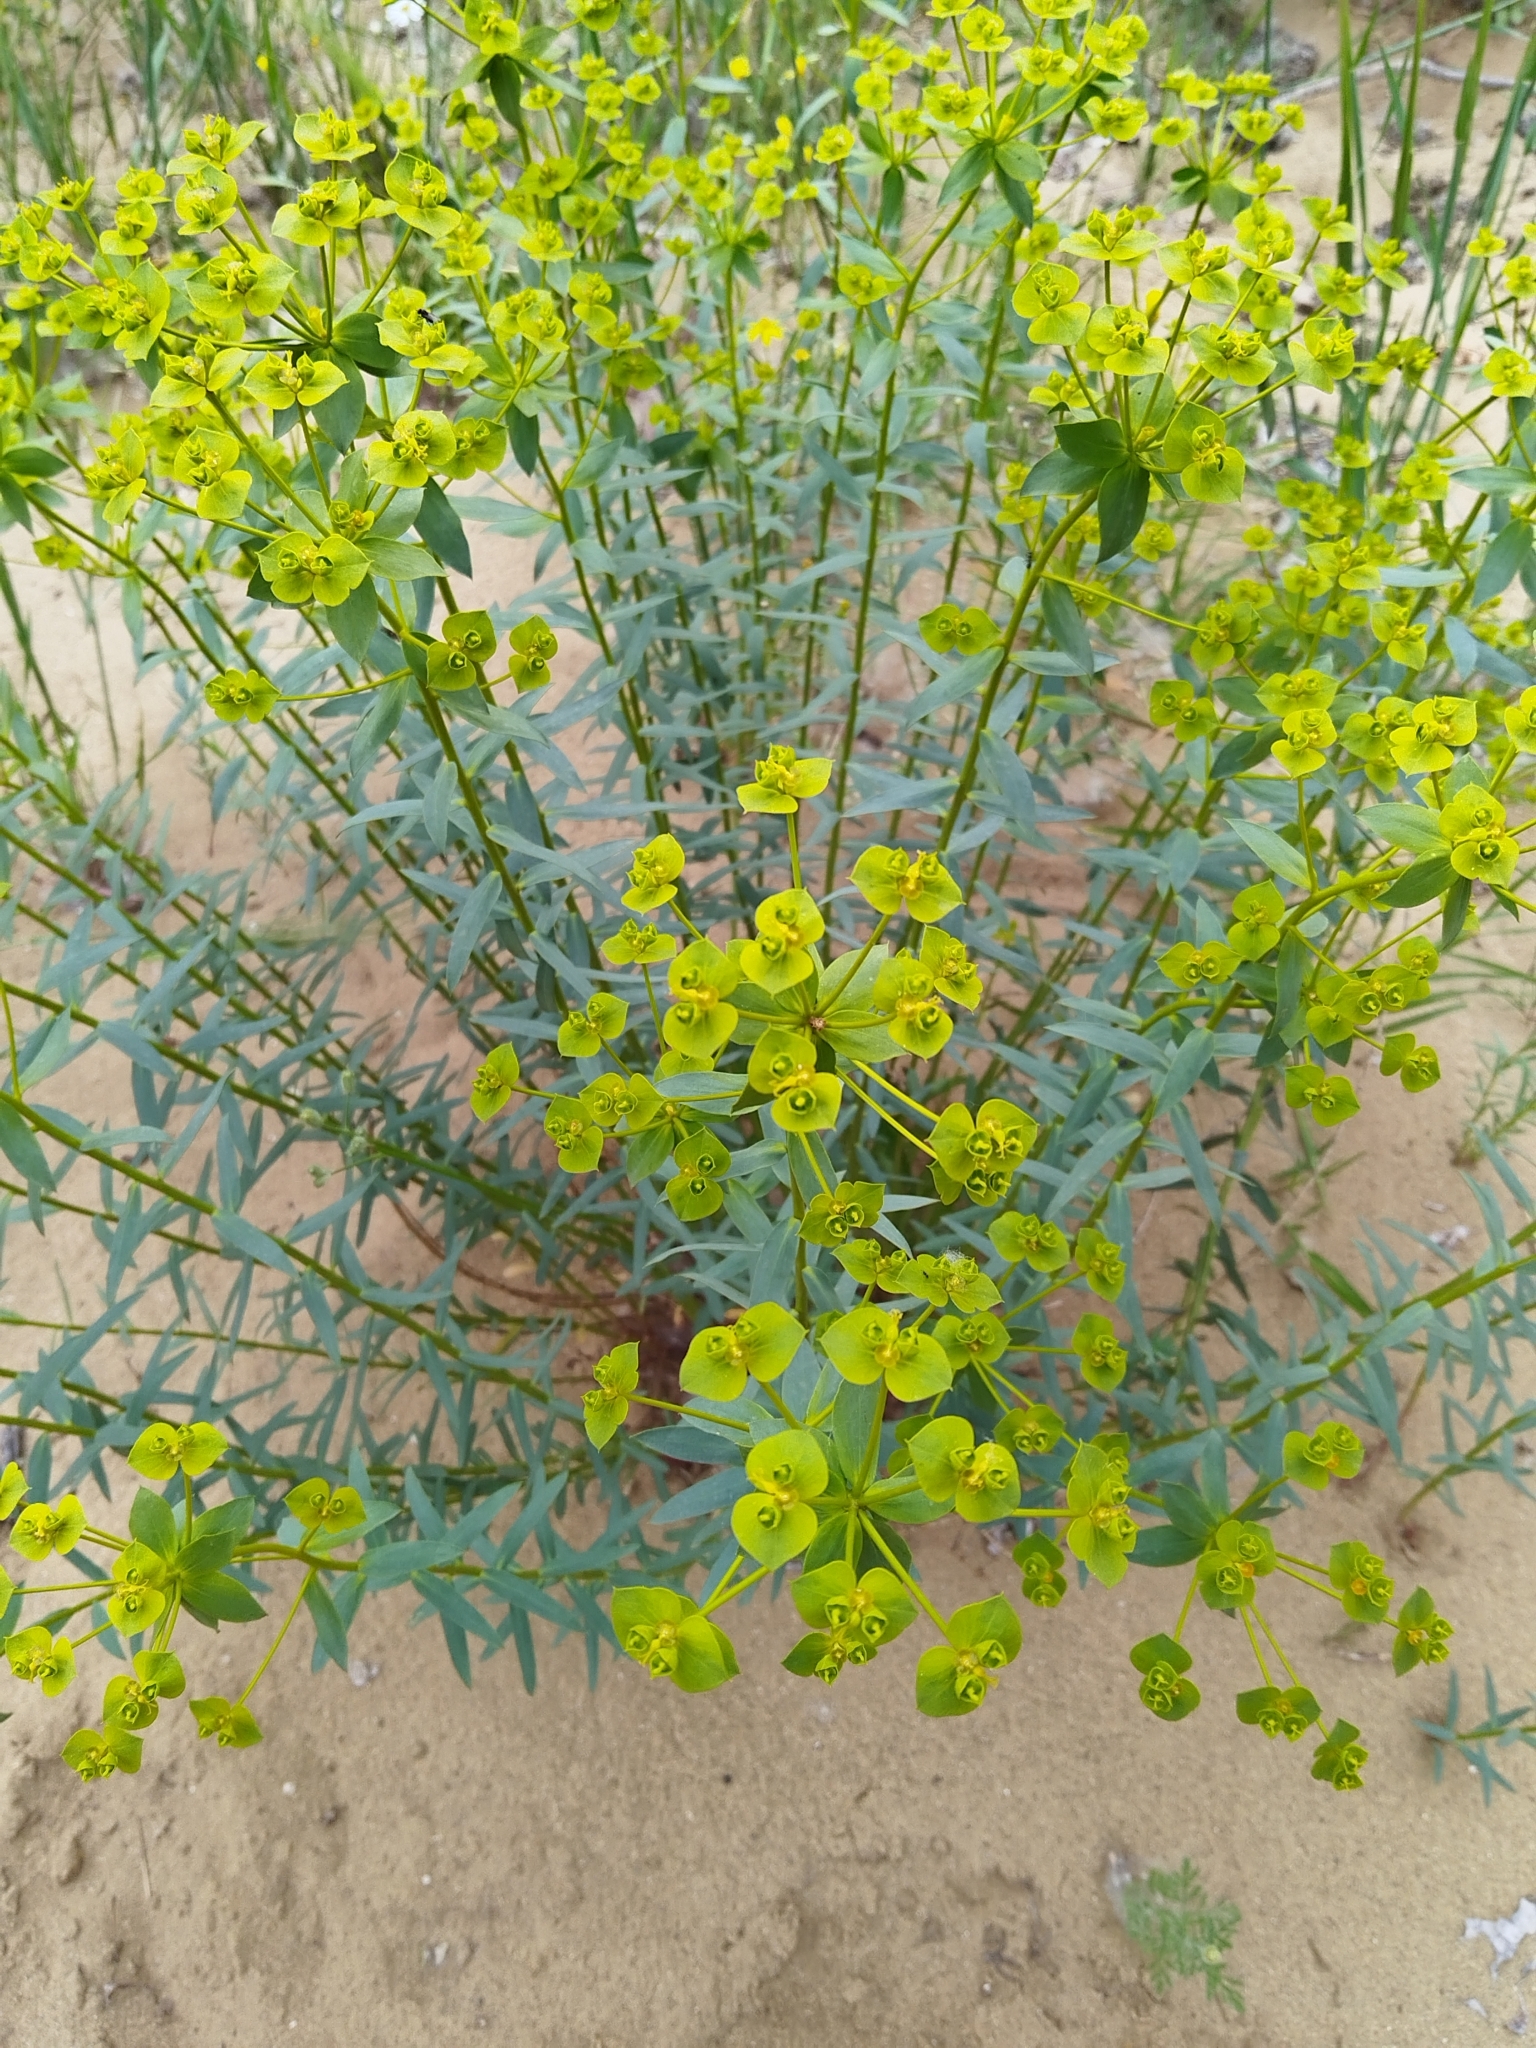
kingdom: Plantae
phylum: Tracheophyta
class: Magnoliopsida
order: Malpighiales
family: Euphorbiaceae
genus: Euphorbia
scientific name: Euphorbia seguieriana
